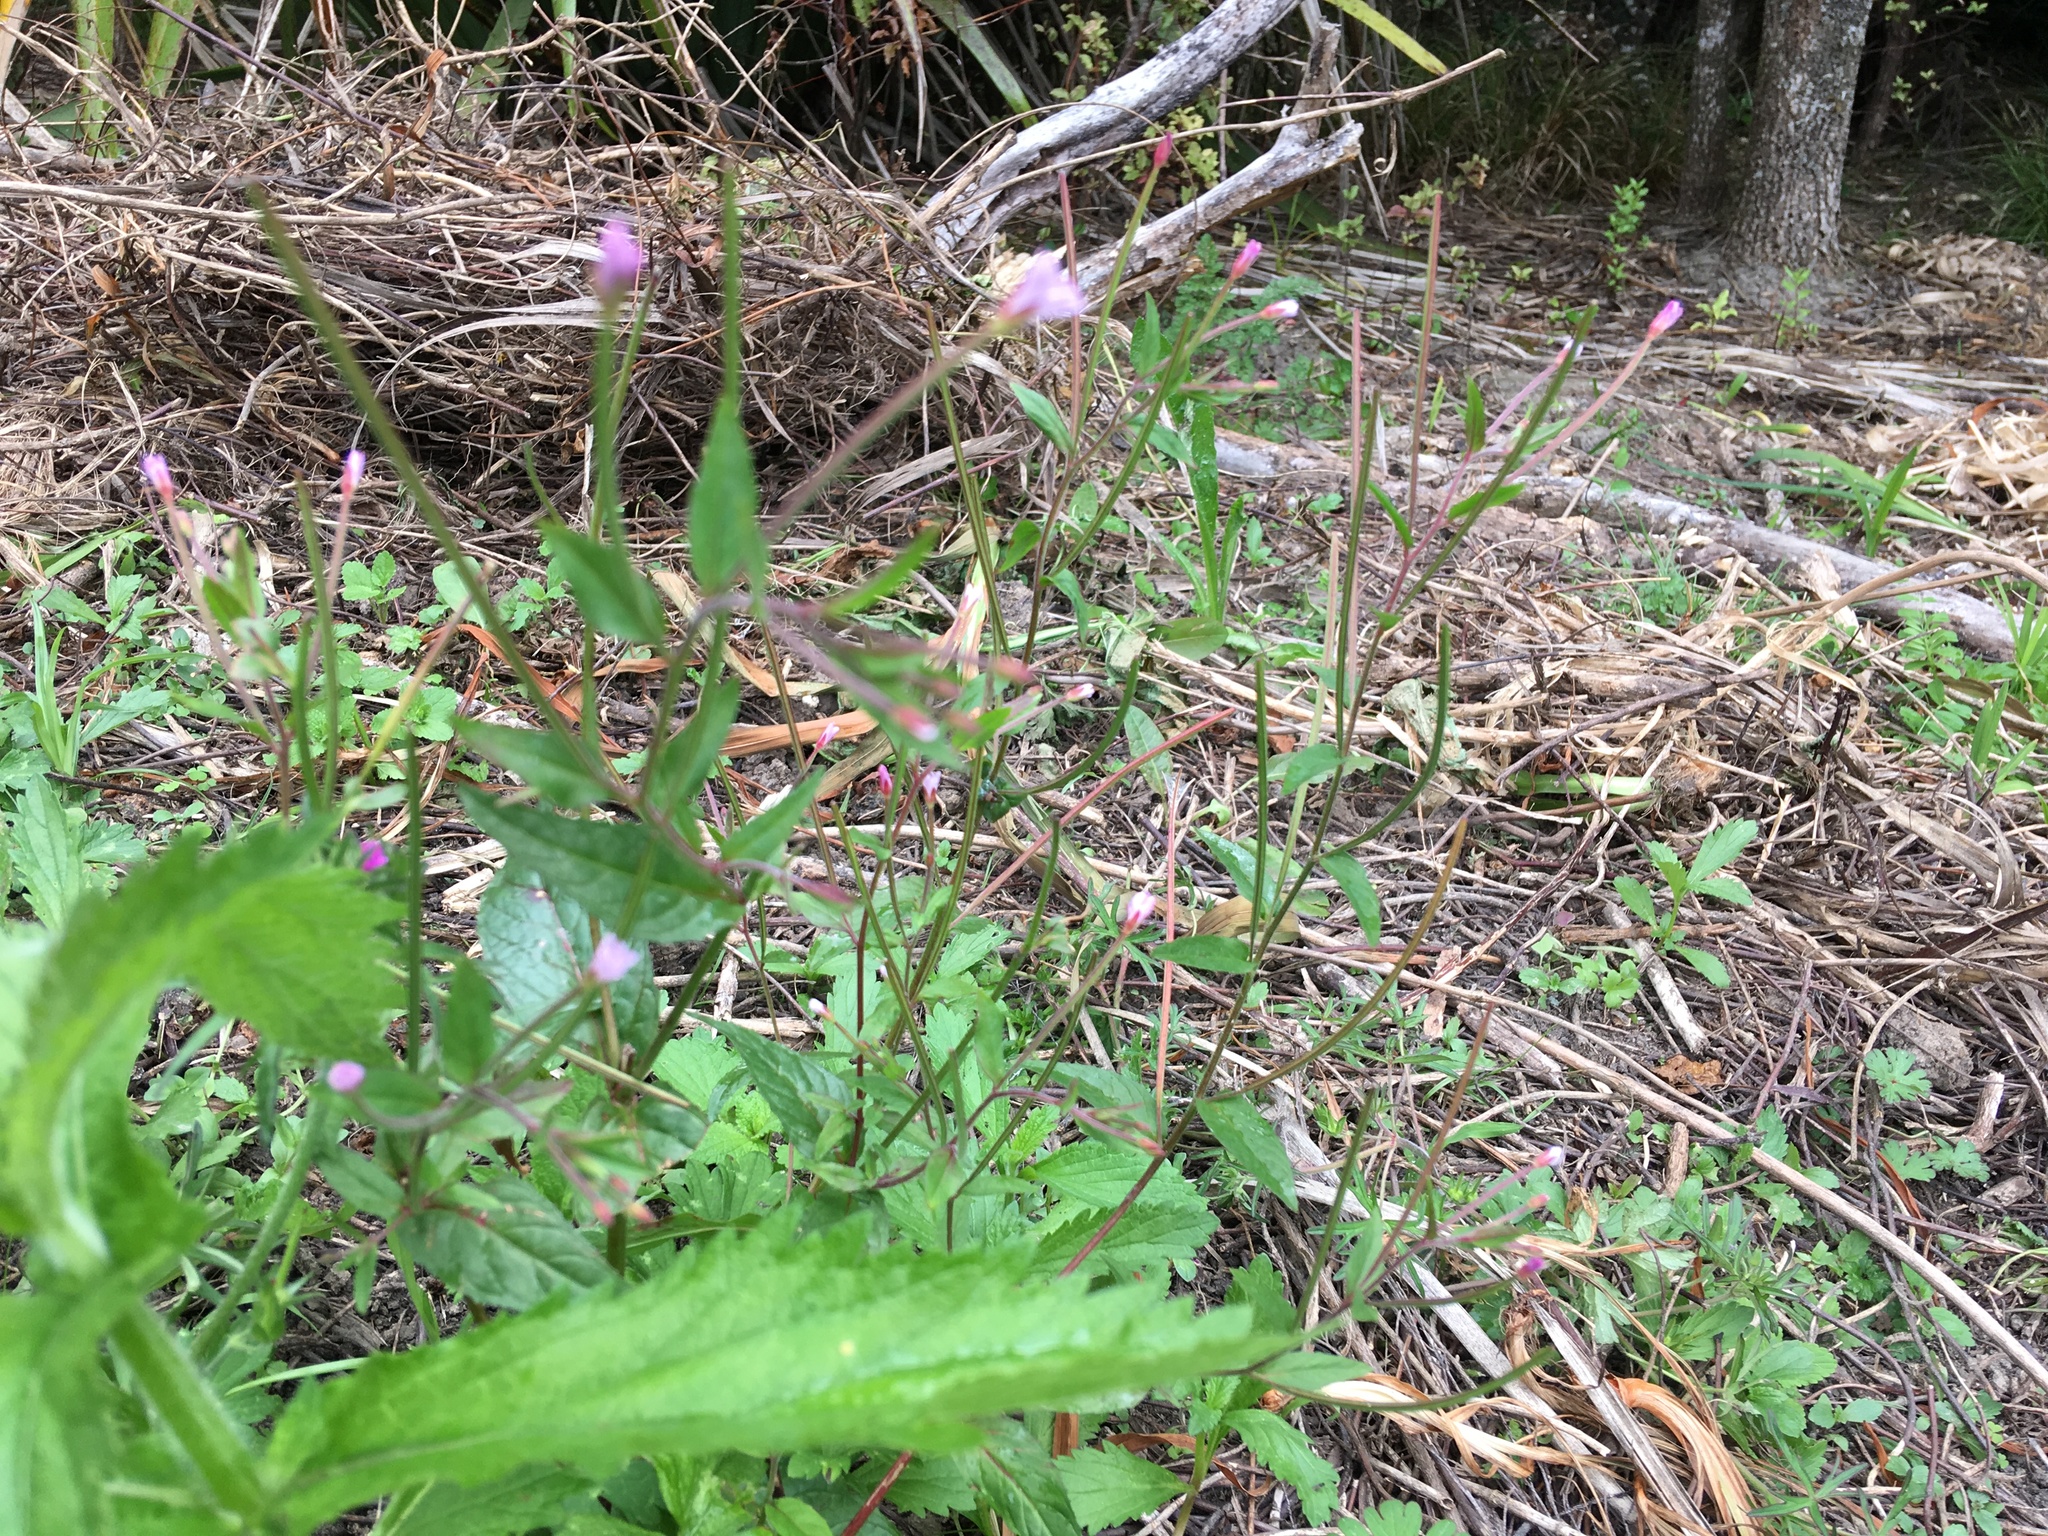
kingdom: Plantae
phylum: Tracheophyta
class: Magnoliopsida
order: Myrtales
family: Onagraceae
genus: Epilobium
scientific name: Epilobium ciliatum
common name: American willowherb
